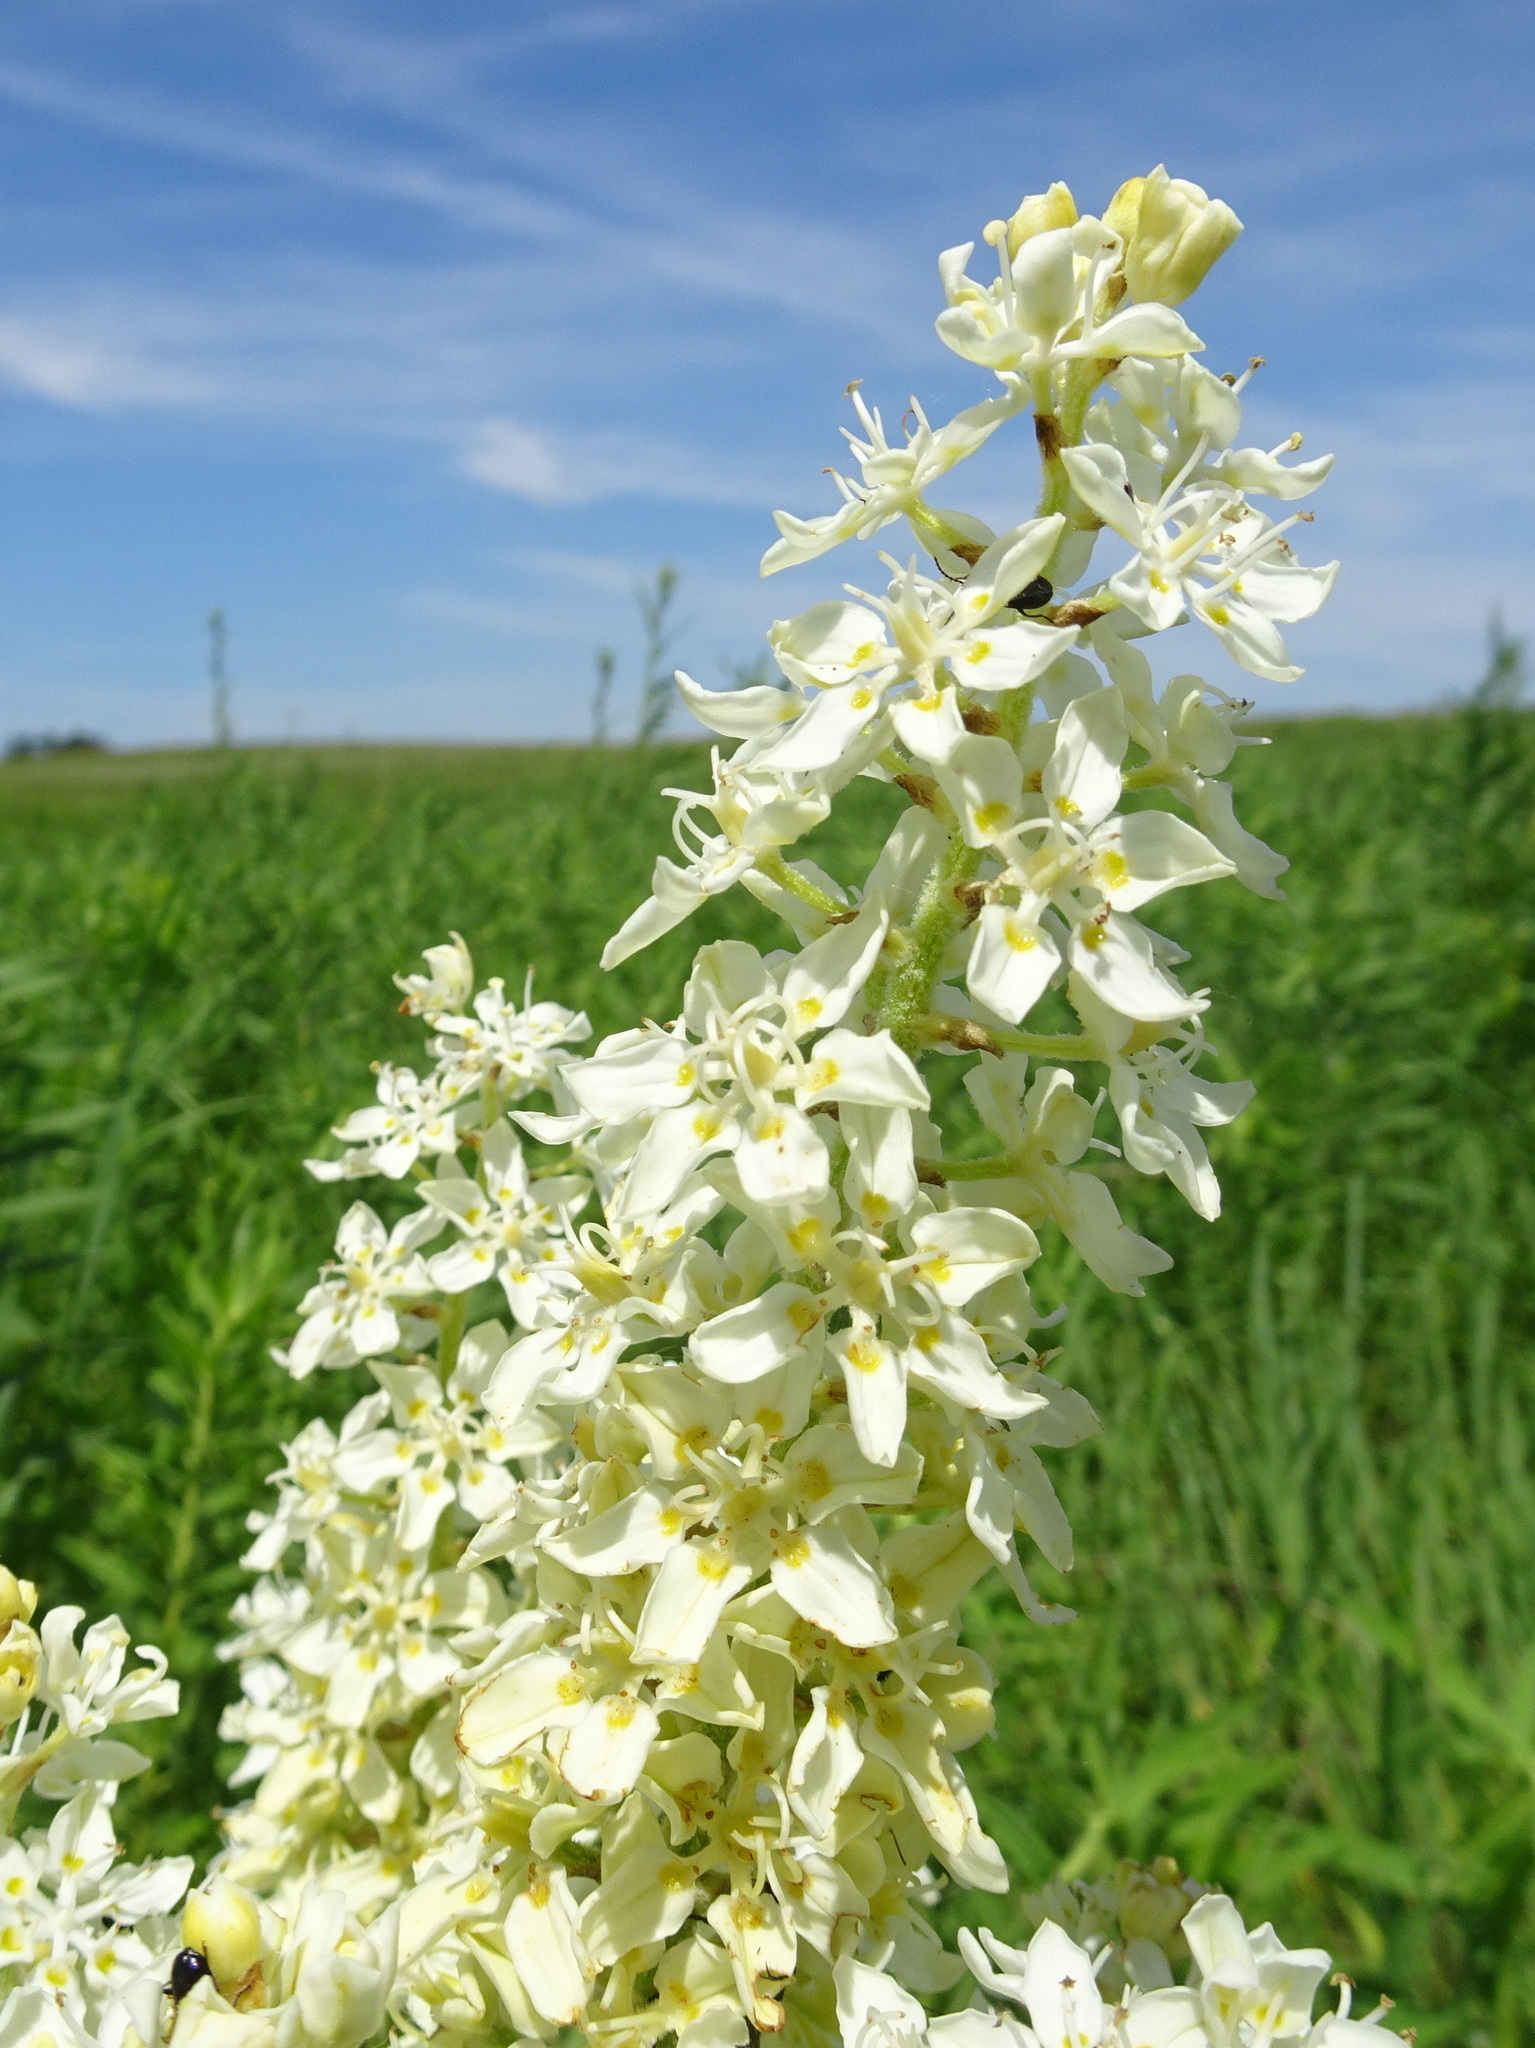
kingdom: Plantae
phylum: Tracheophyta
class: Liliopsida
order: Liliales
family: Melanthiaceae
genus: Melanthium
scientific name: Melanthium virginicum
